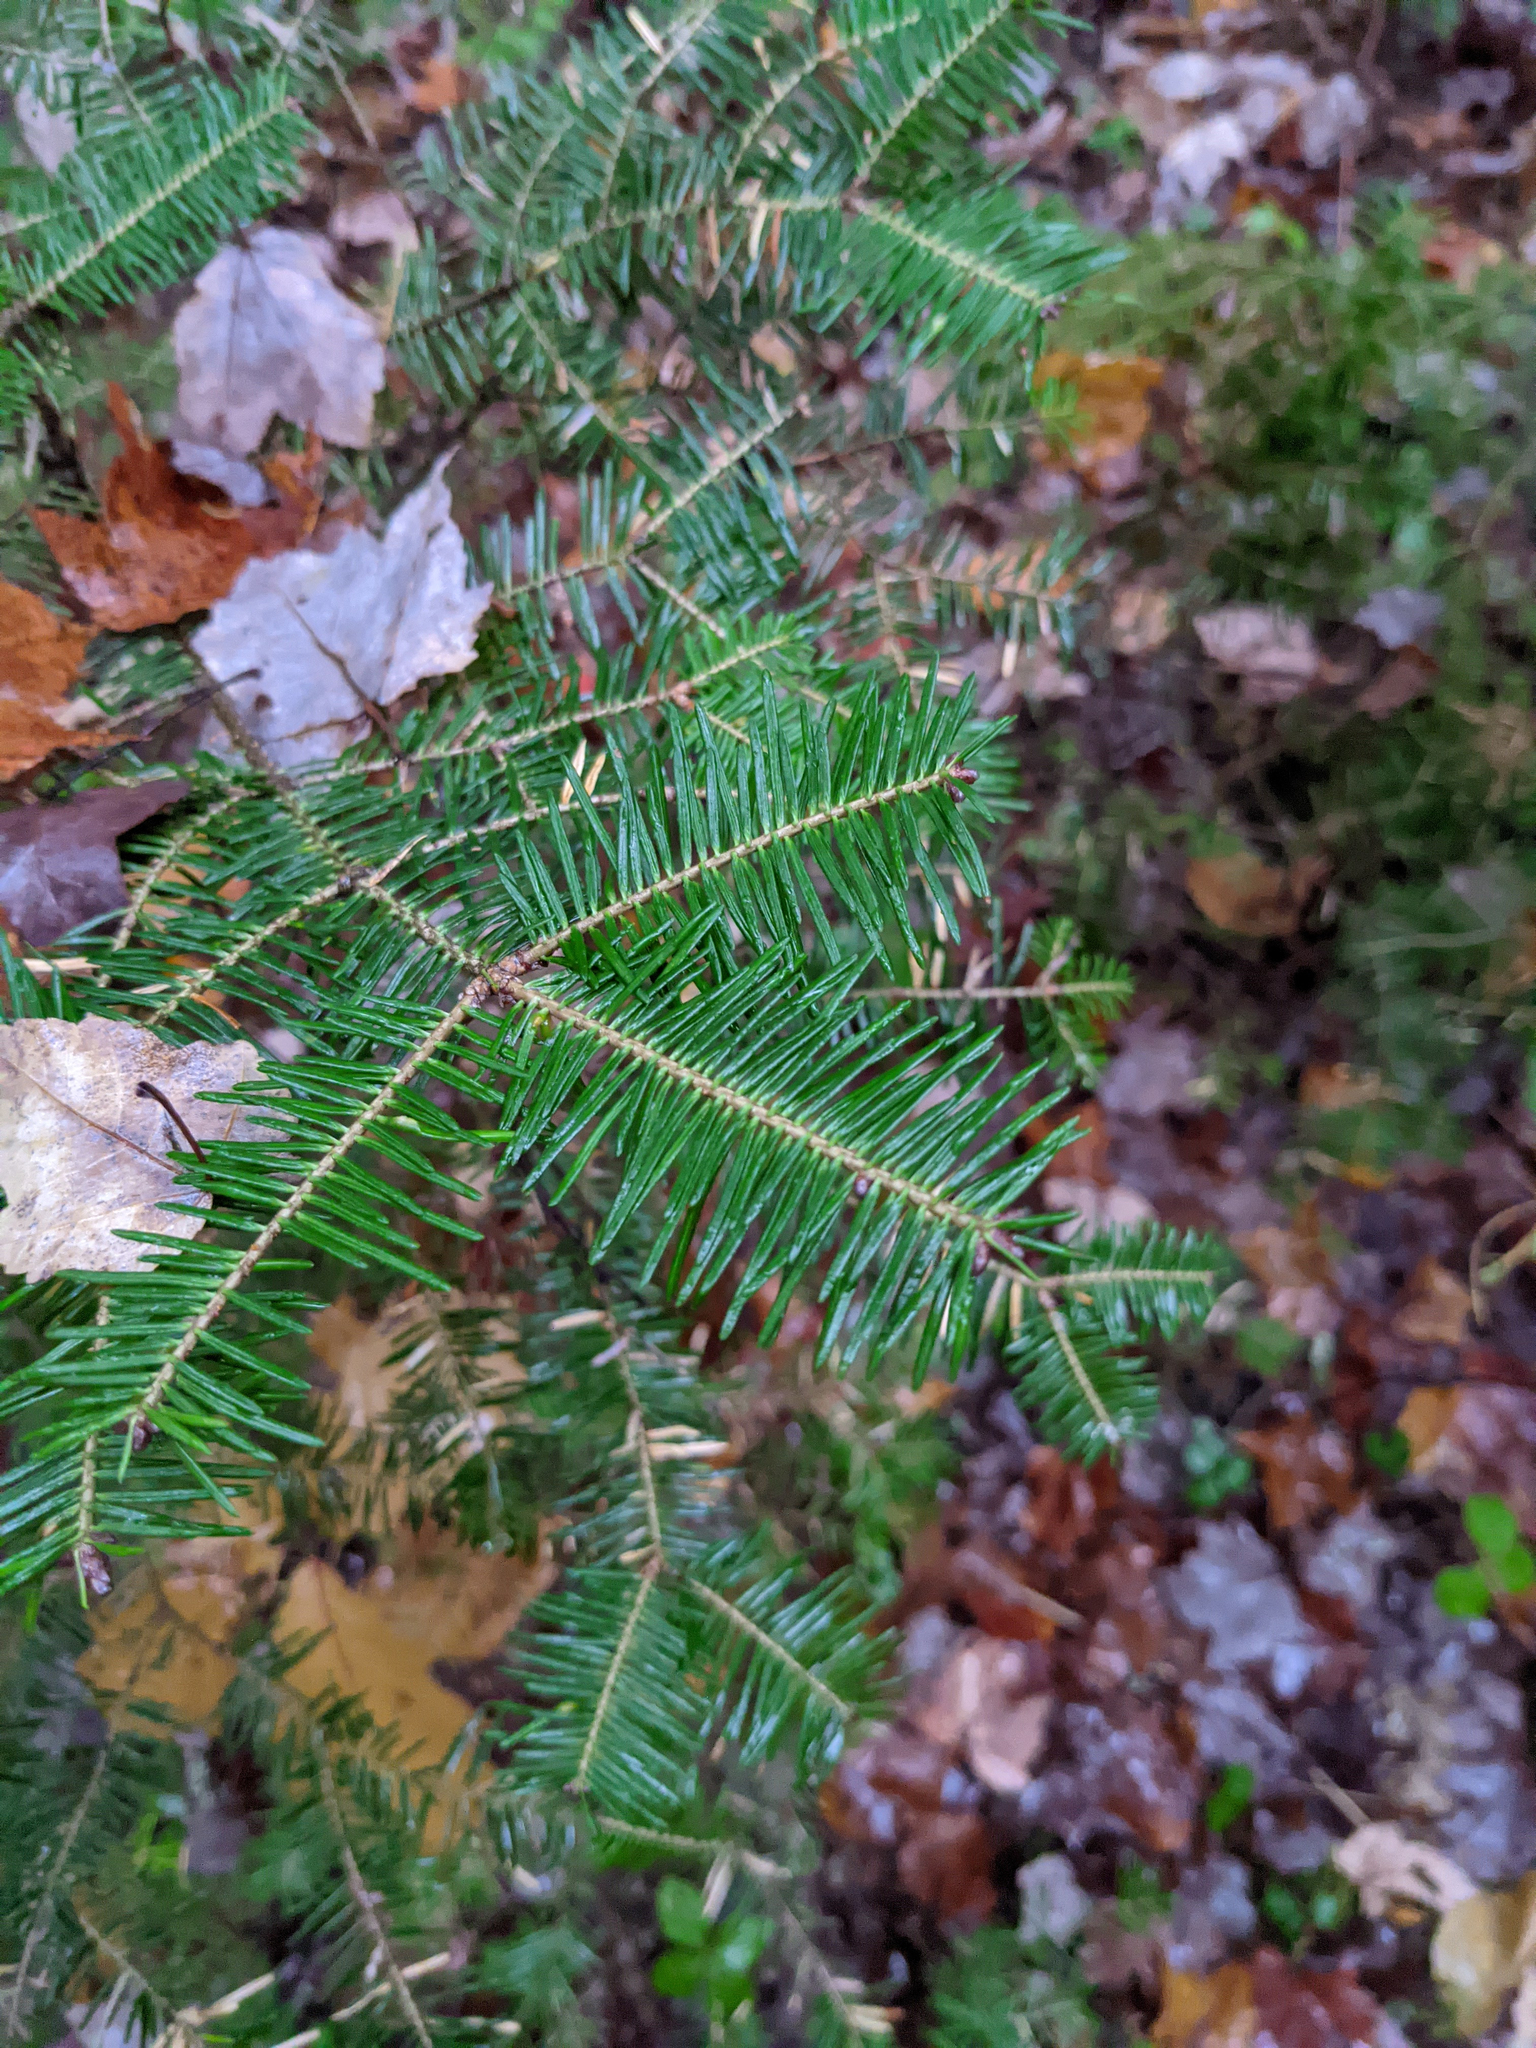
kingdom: Plantae
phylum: Tracheophyta
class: Pinopsida
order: Pinales
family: Pinaceae
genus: Abies
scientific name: Abies balsamea
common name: Balsam fir
